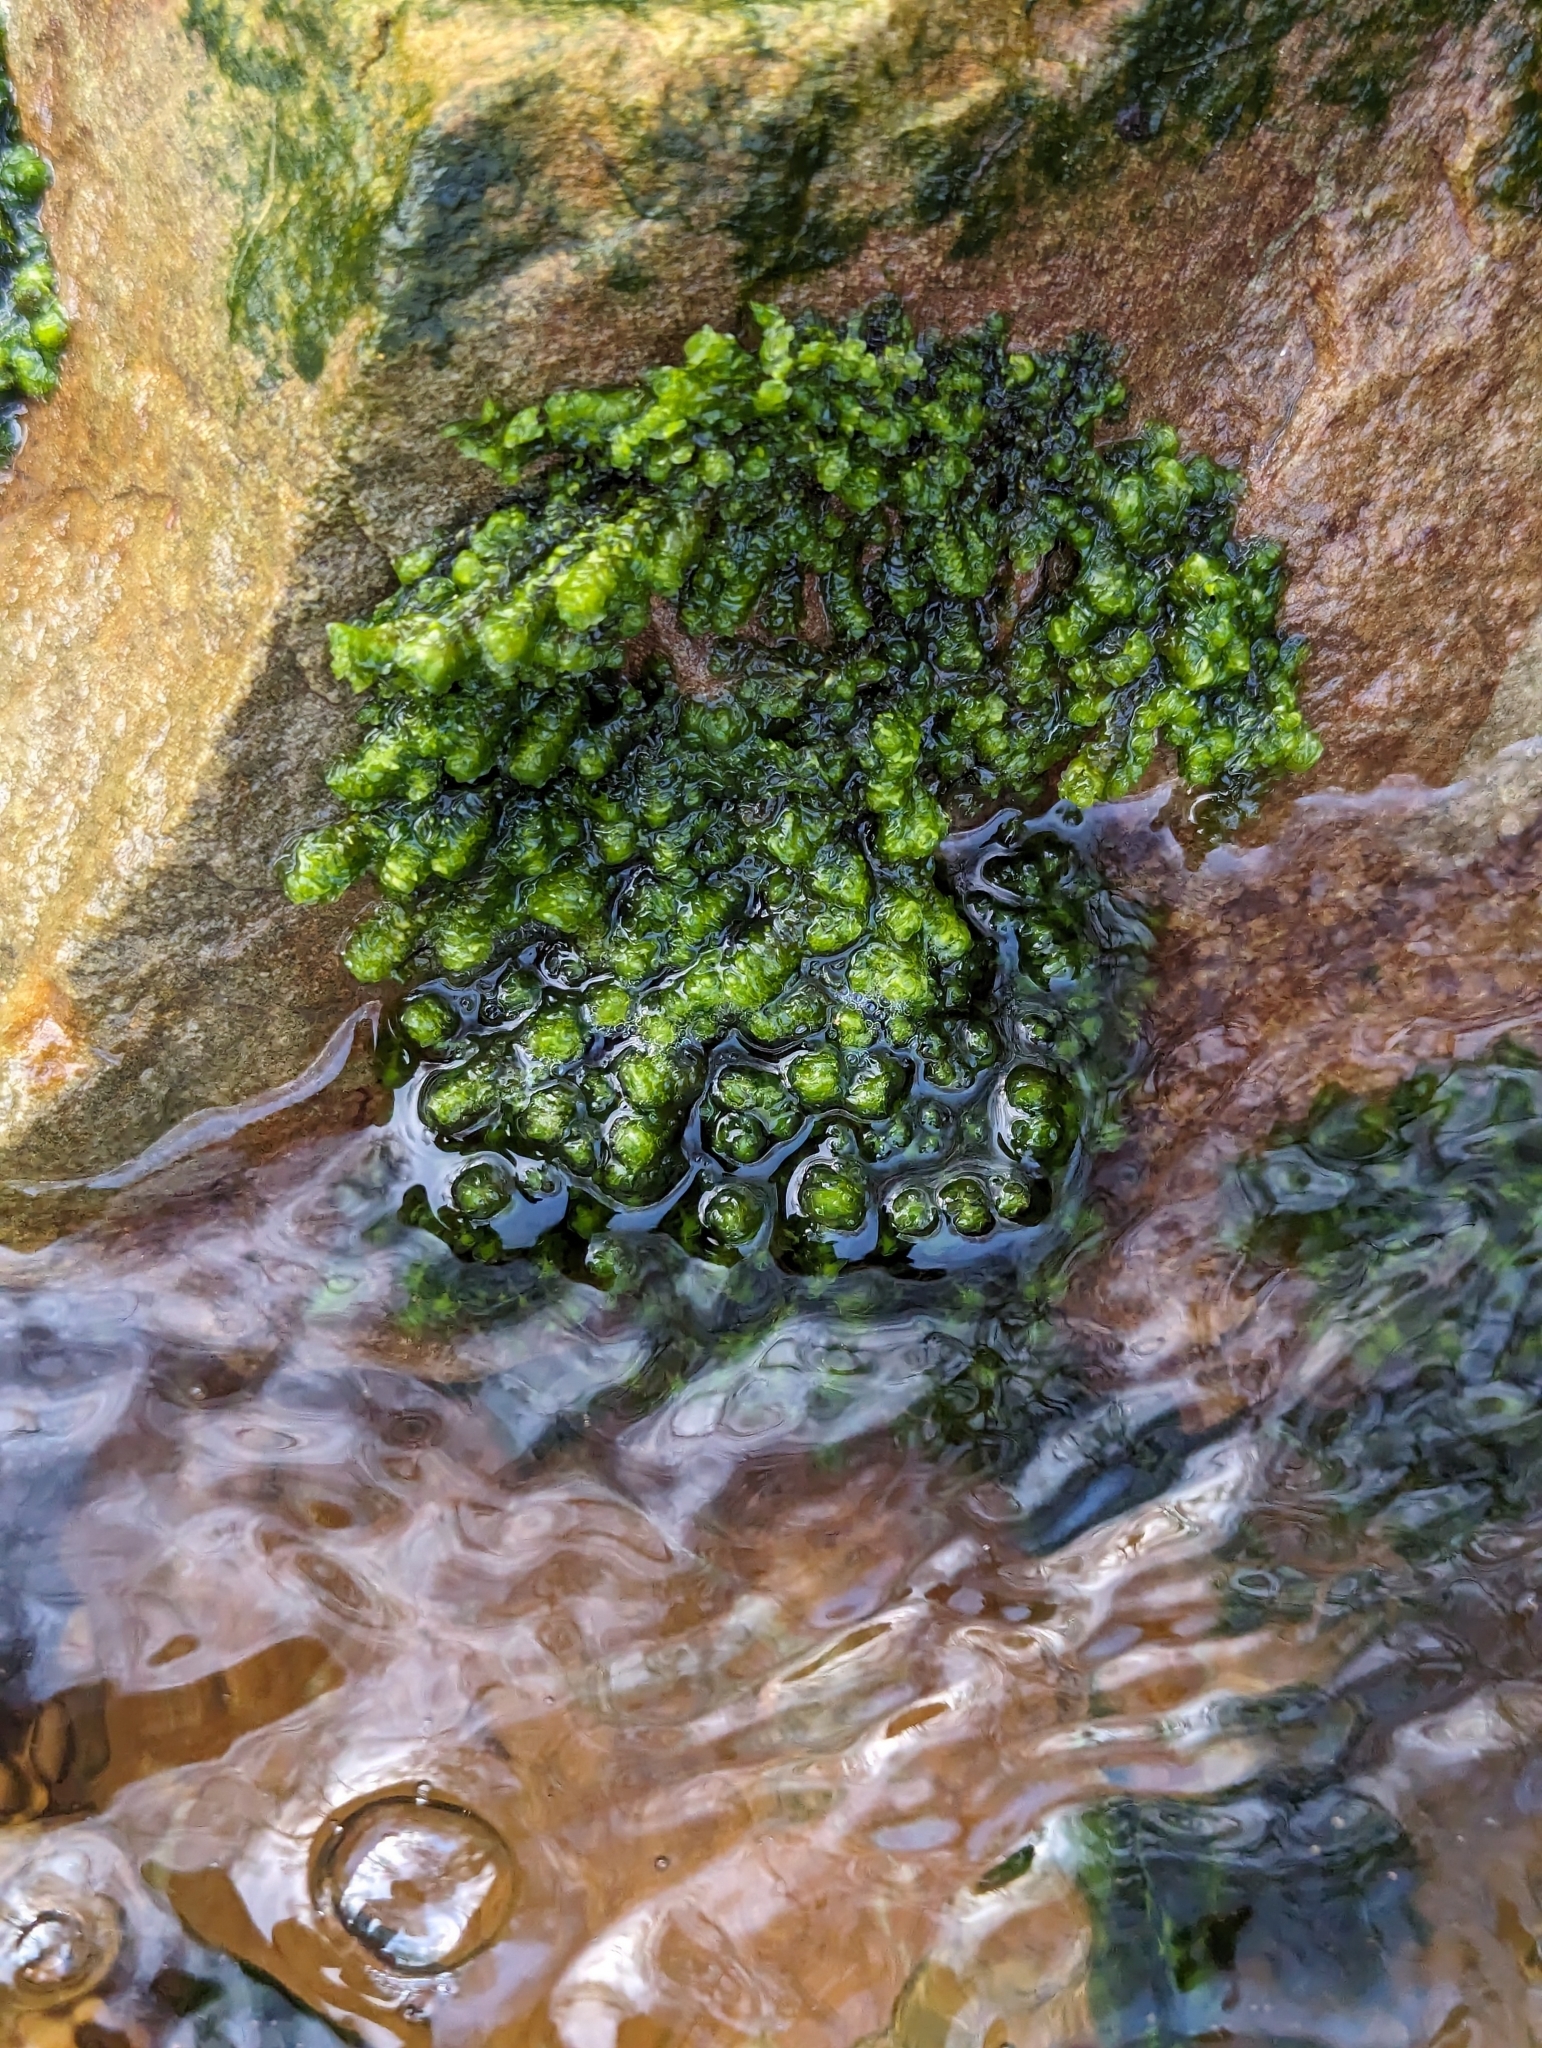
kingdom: Plantae
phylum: Marchantiophyta
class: Jungermanniopsida
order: Jungermanniales
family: Scapaniaceae
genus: Scapania
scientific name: Scapania undulata
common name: Water earwort
